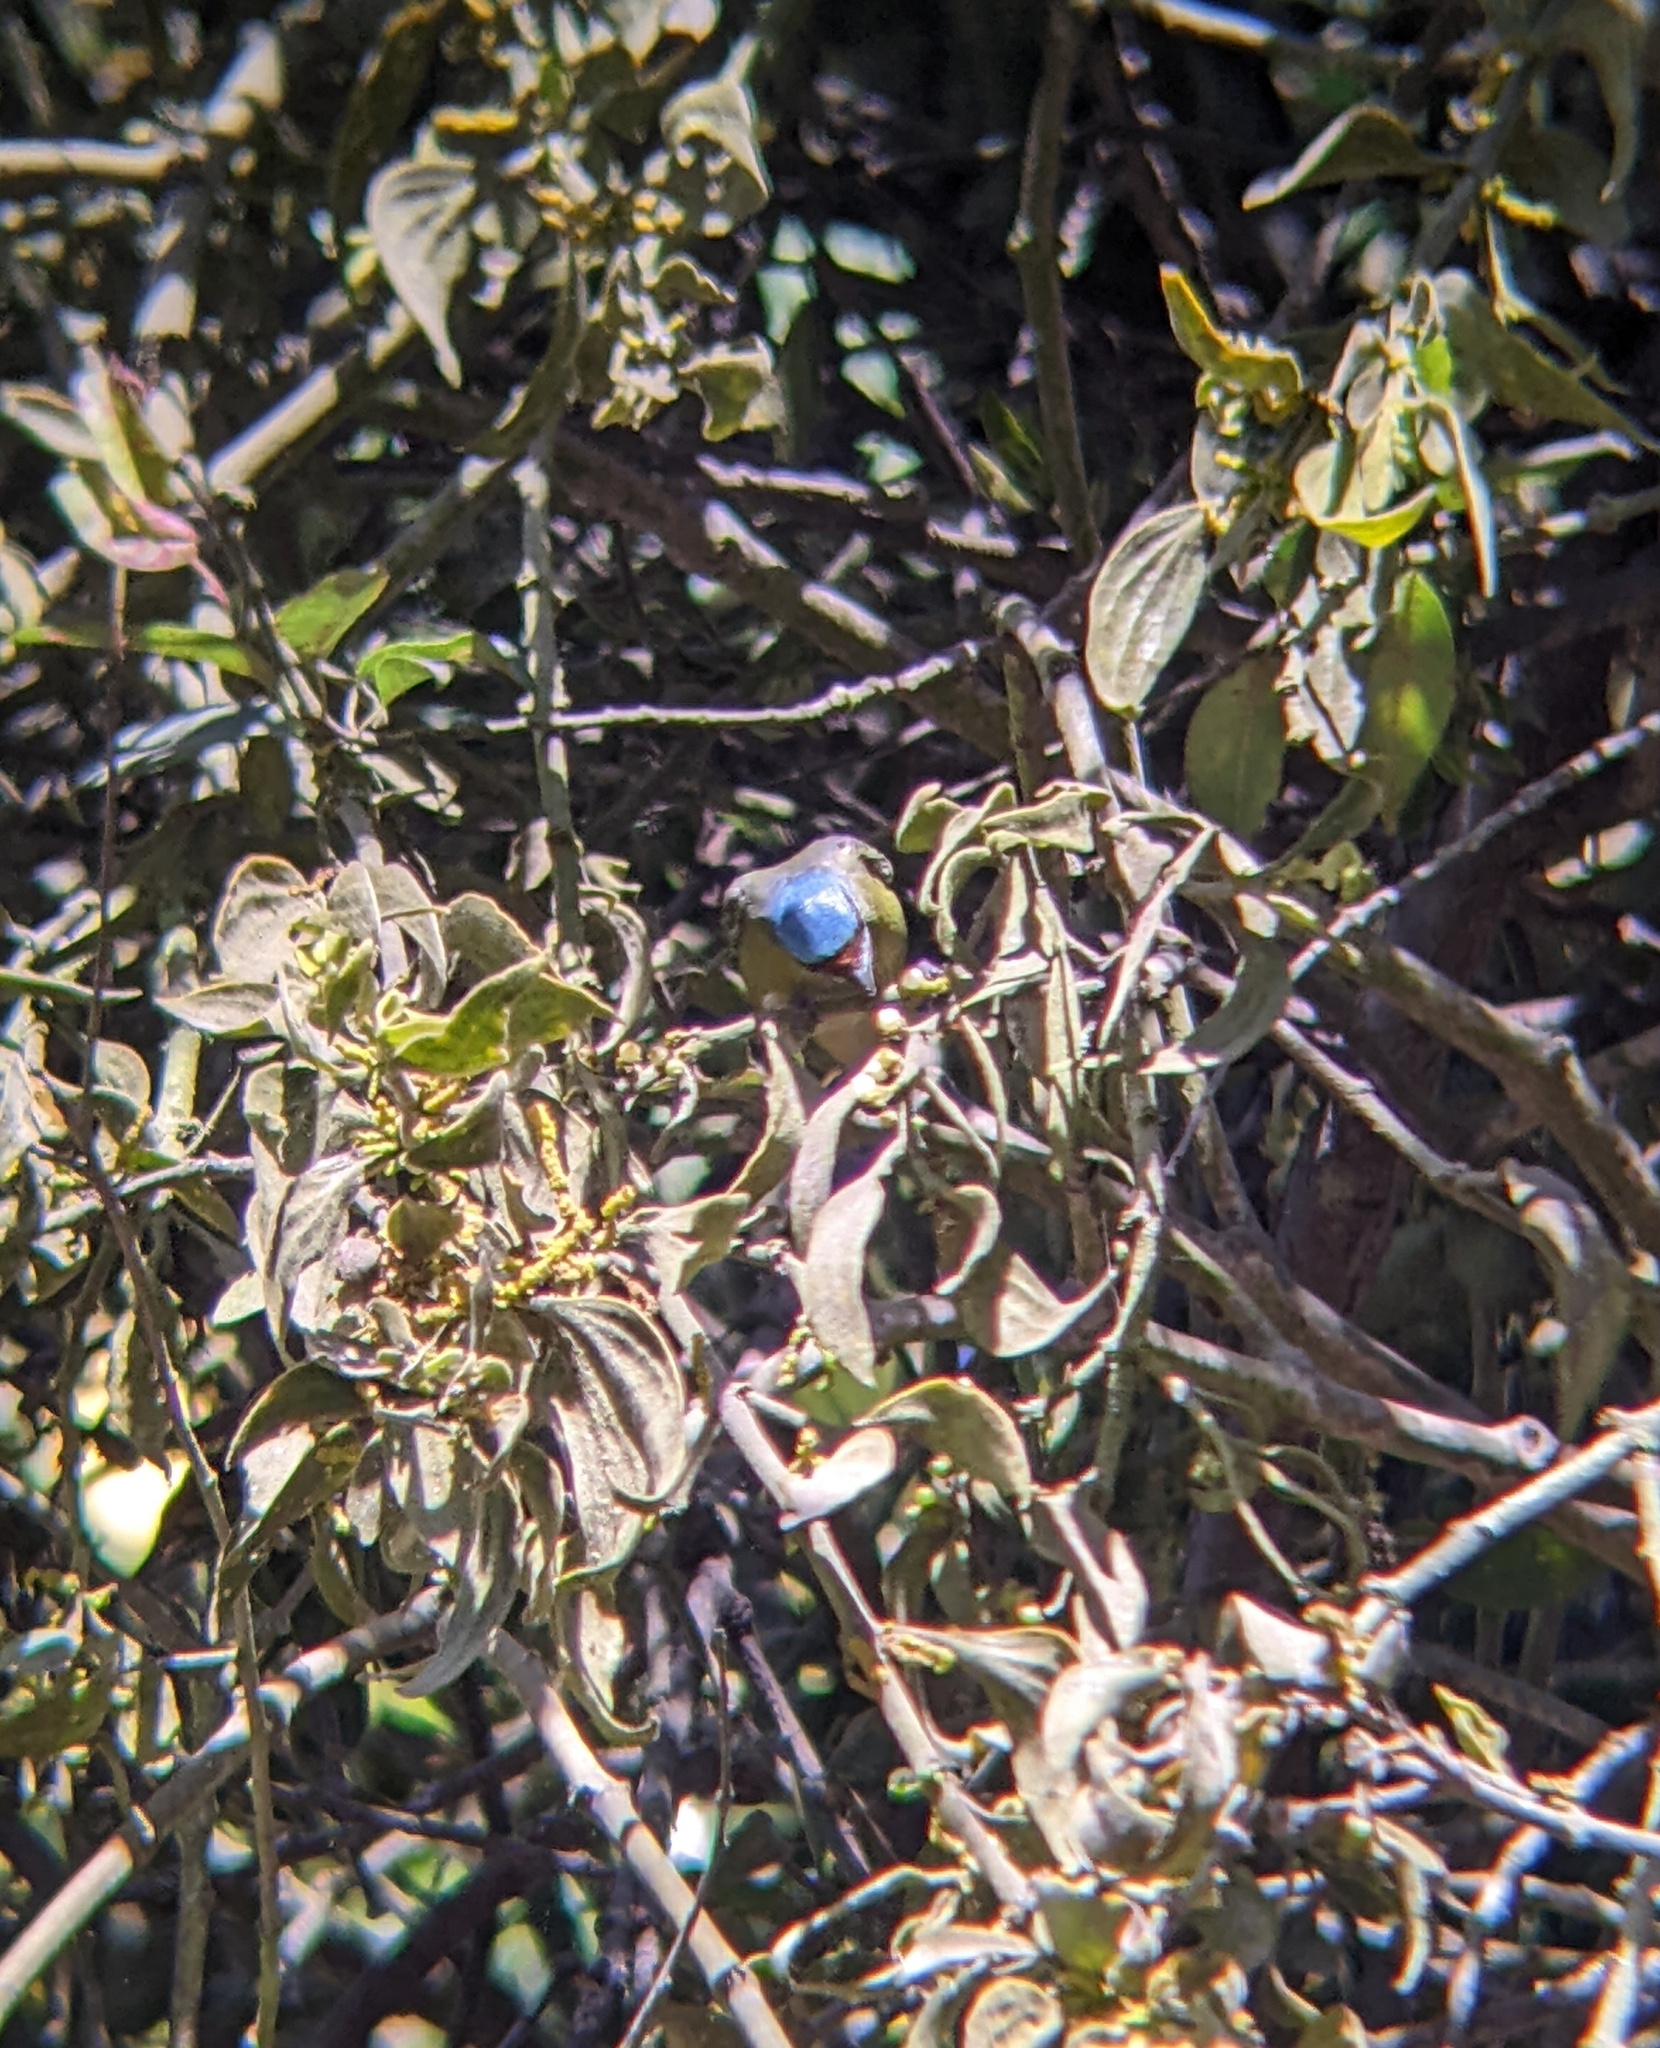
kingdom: Animalia
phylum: Chordata
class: Aves
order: Passeriformes
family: Fringillidae
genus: Euphonia
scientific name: Euphonia elegantissima
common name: Elegant euphonia
